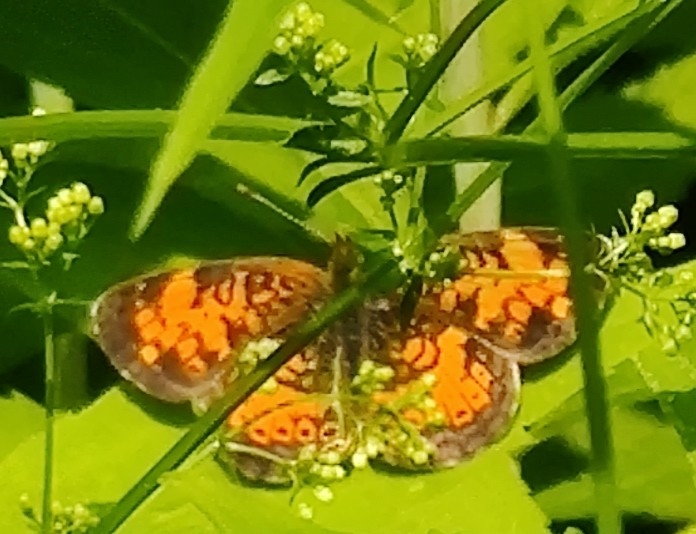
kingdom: Animalia
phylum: Arthropoda
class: Insecta
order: Lepidoptera
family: Nymphalidae
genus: Phyciodes
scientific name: Phyciodes tharos
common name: Pearl crescent
